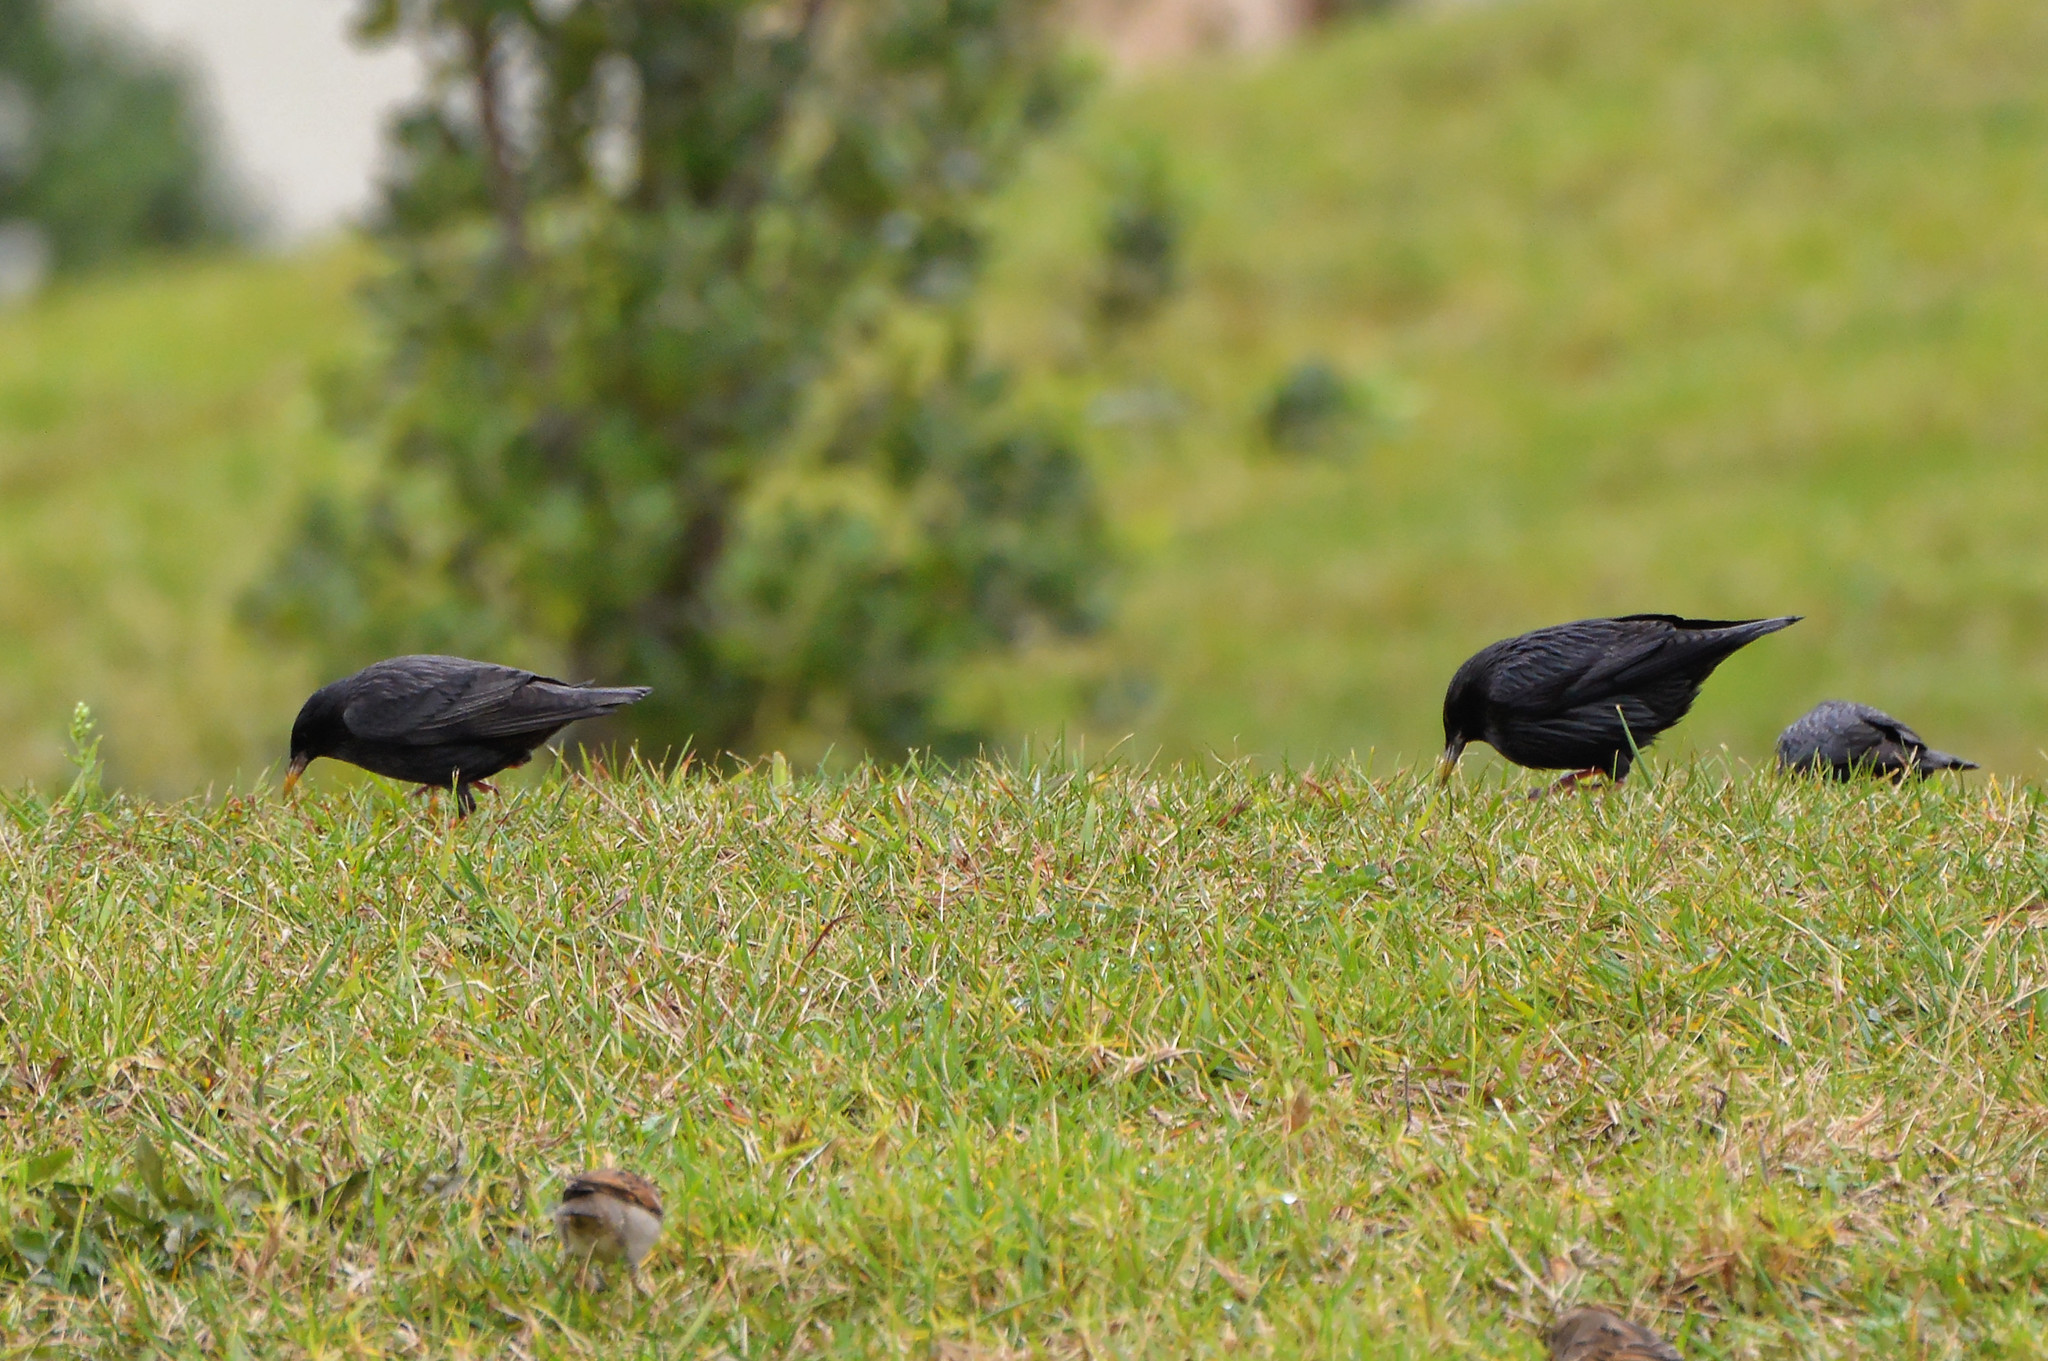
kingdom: Animalia
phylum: Chordata
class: Aves
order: Passeriformes
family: Sturnidae
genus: Sturnus
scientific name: Sturnus unicolor
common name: Spotless starling
